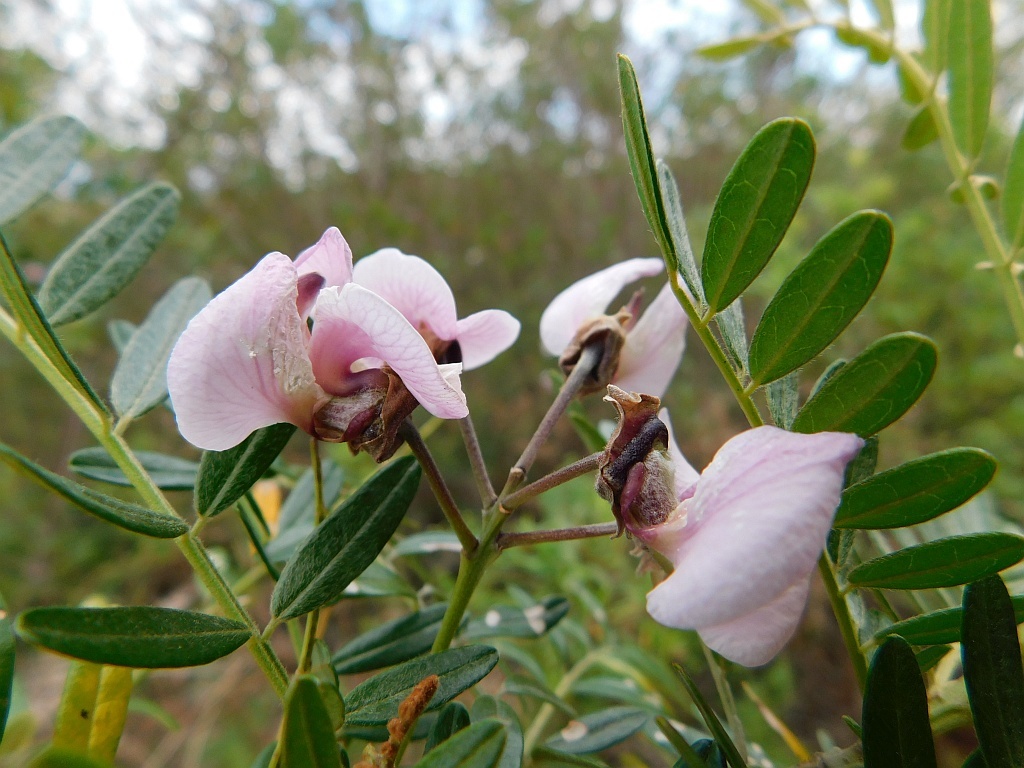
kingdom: Plantae
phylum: Tracheophyta
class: Magnoliopsida
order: Fabales
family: Fabaceae
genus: Virgilia
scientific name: Virgilia oroboides
